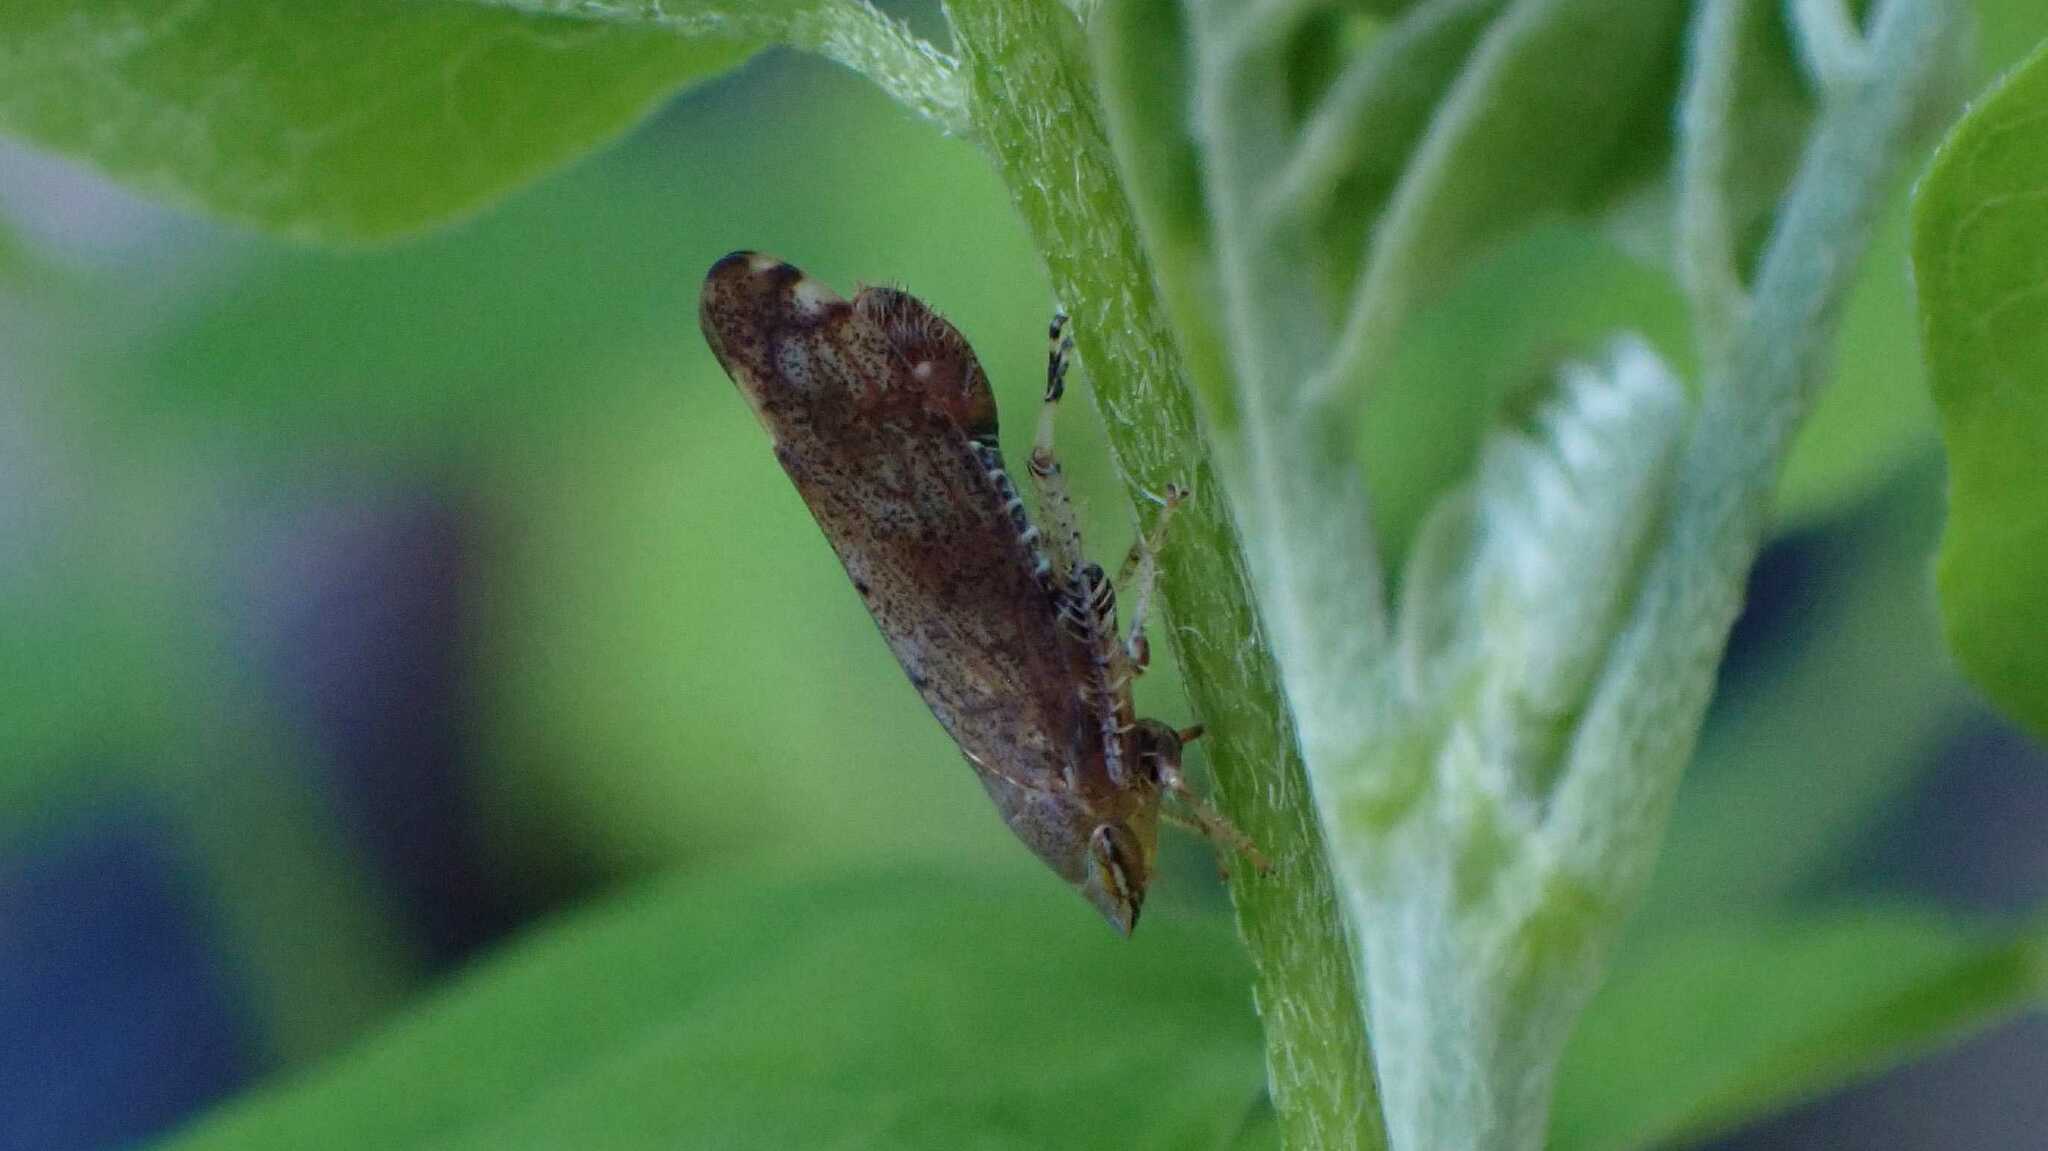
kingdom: Animalia
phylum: Arthropoda
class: Insecta
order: Hemiptera
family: Cicadellidae
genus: Fieberiella
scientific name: Fieberiella
